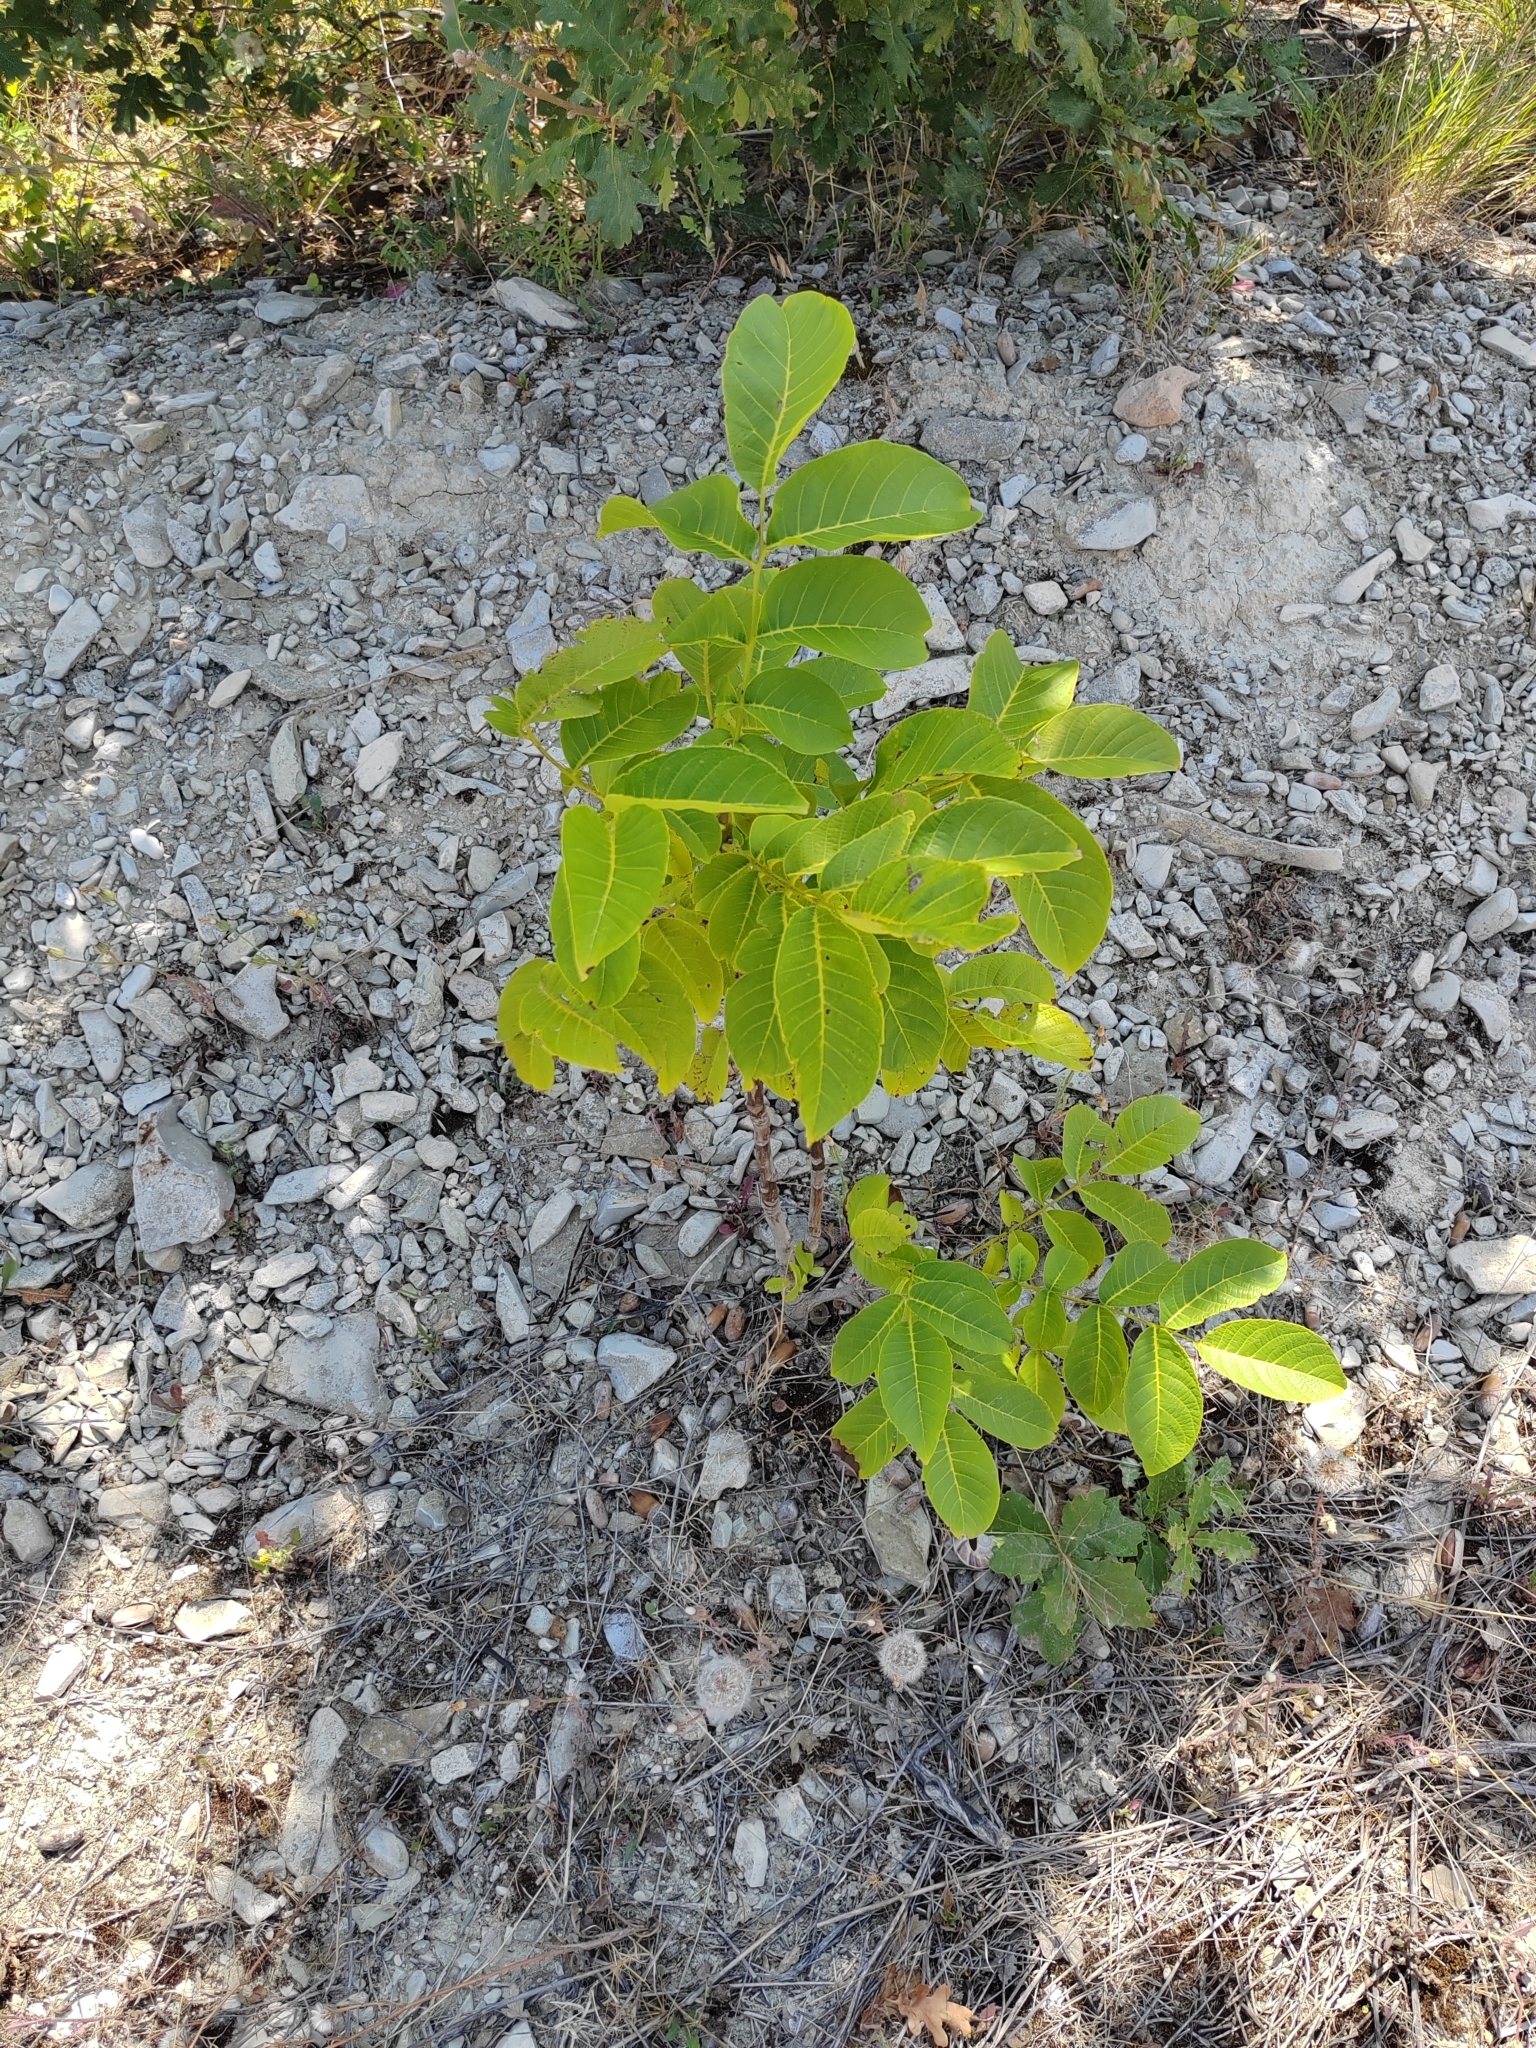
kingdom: Plantae
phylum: Tracheophyta
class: Magnoliopsida
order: Fagales
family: Juglandaceae
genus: Juglans
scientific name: Juglans regia
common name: Walnut
